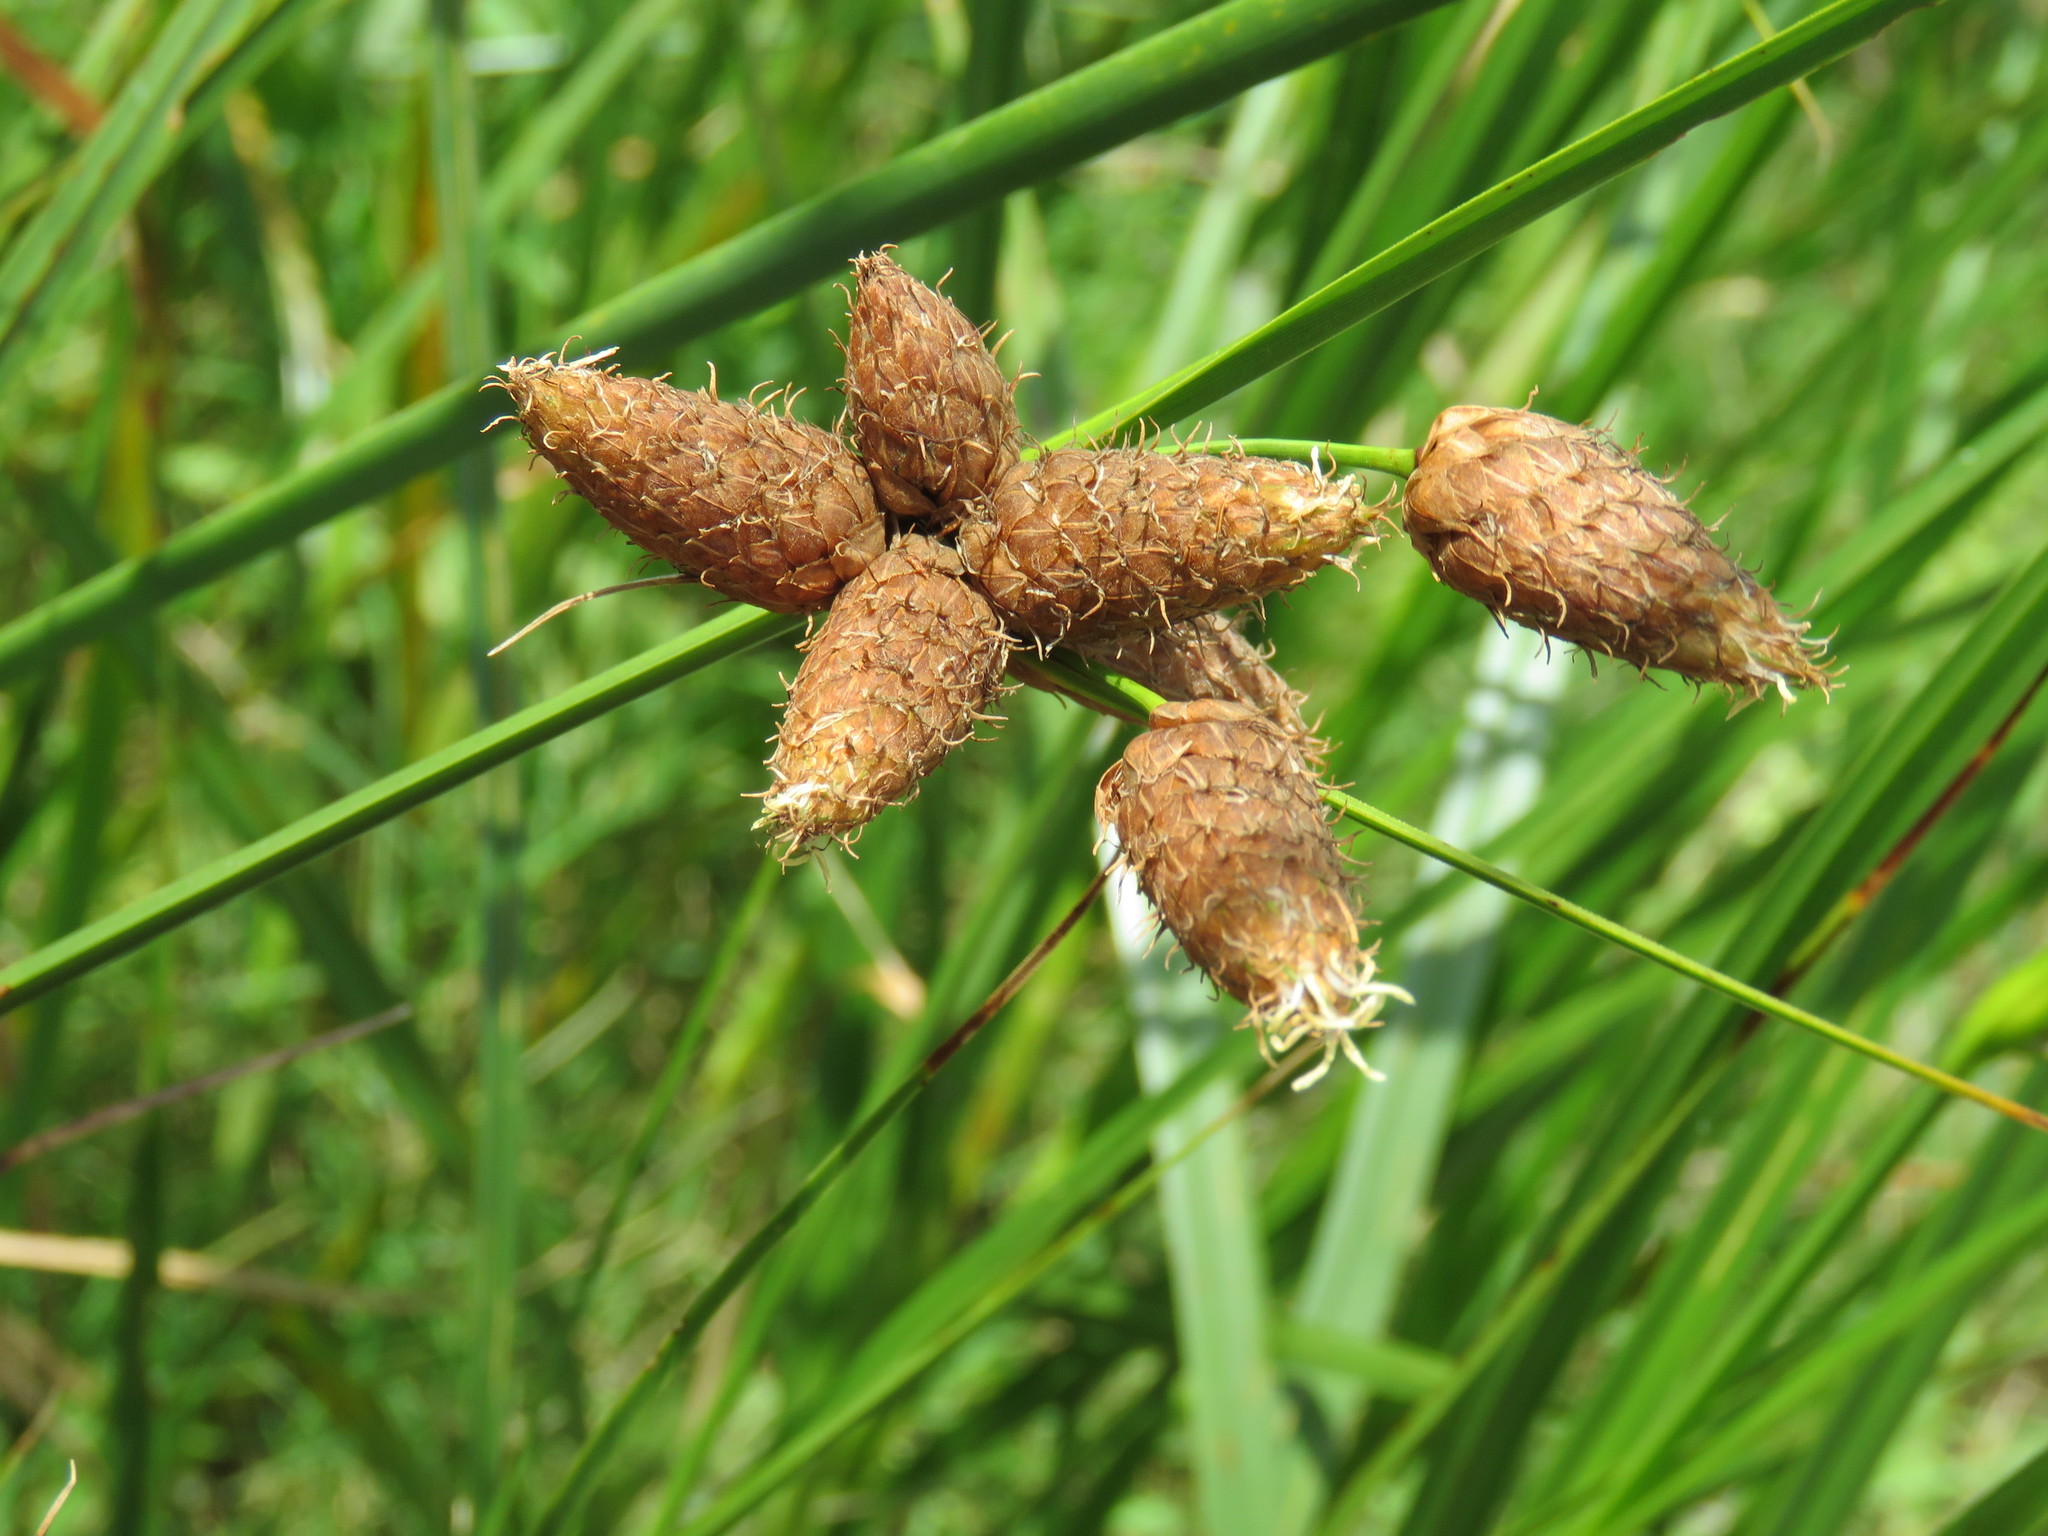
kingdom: Plantae
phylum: Tracheophyta
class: Liliopsida
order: Poales
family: Cyperaceae
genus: Bolboschoenus
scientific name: Bolboschoenus robustus
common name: Seacoast bulrush
